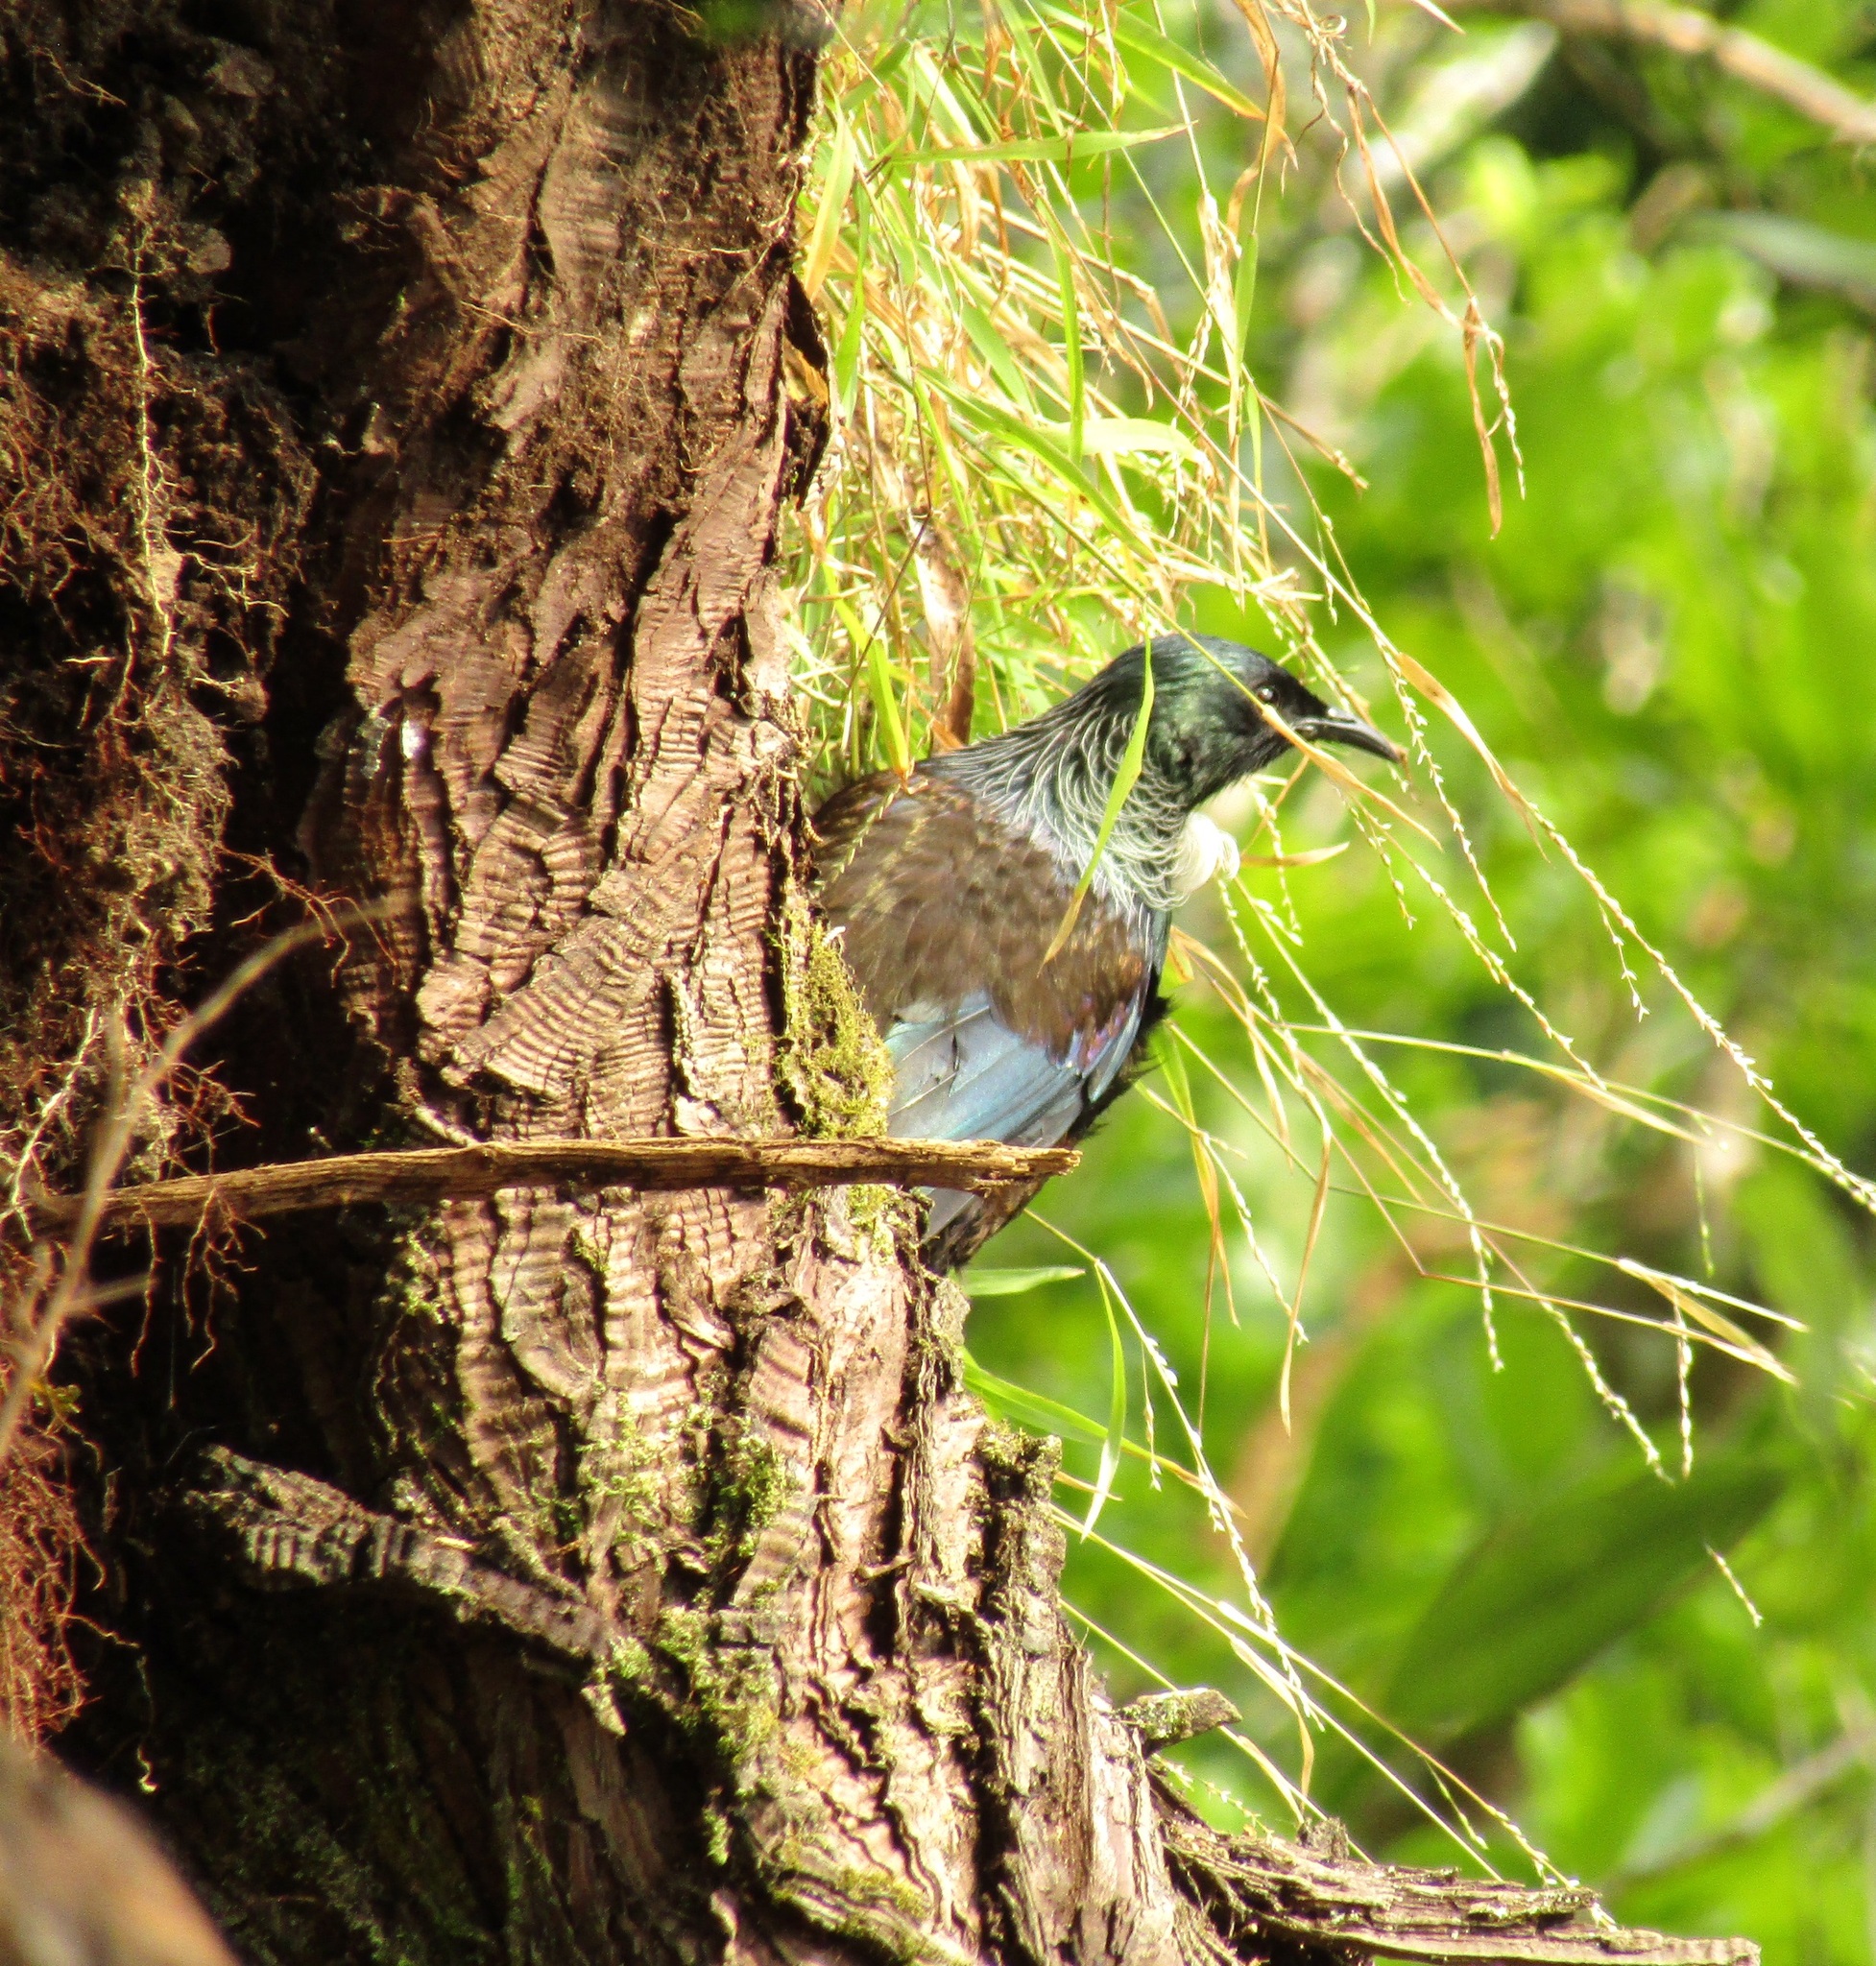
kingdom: Animalia
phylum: Chordata
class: Aves
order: Passeriformes
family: Meliphagidae
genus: Prosthemadera
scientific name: Prosthemadera novaeseelandiae
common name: Tui
